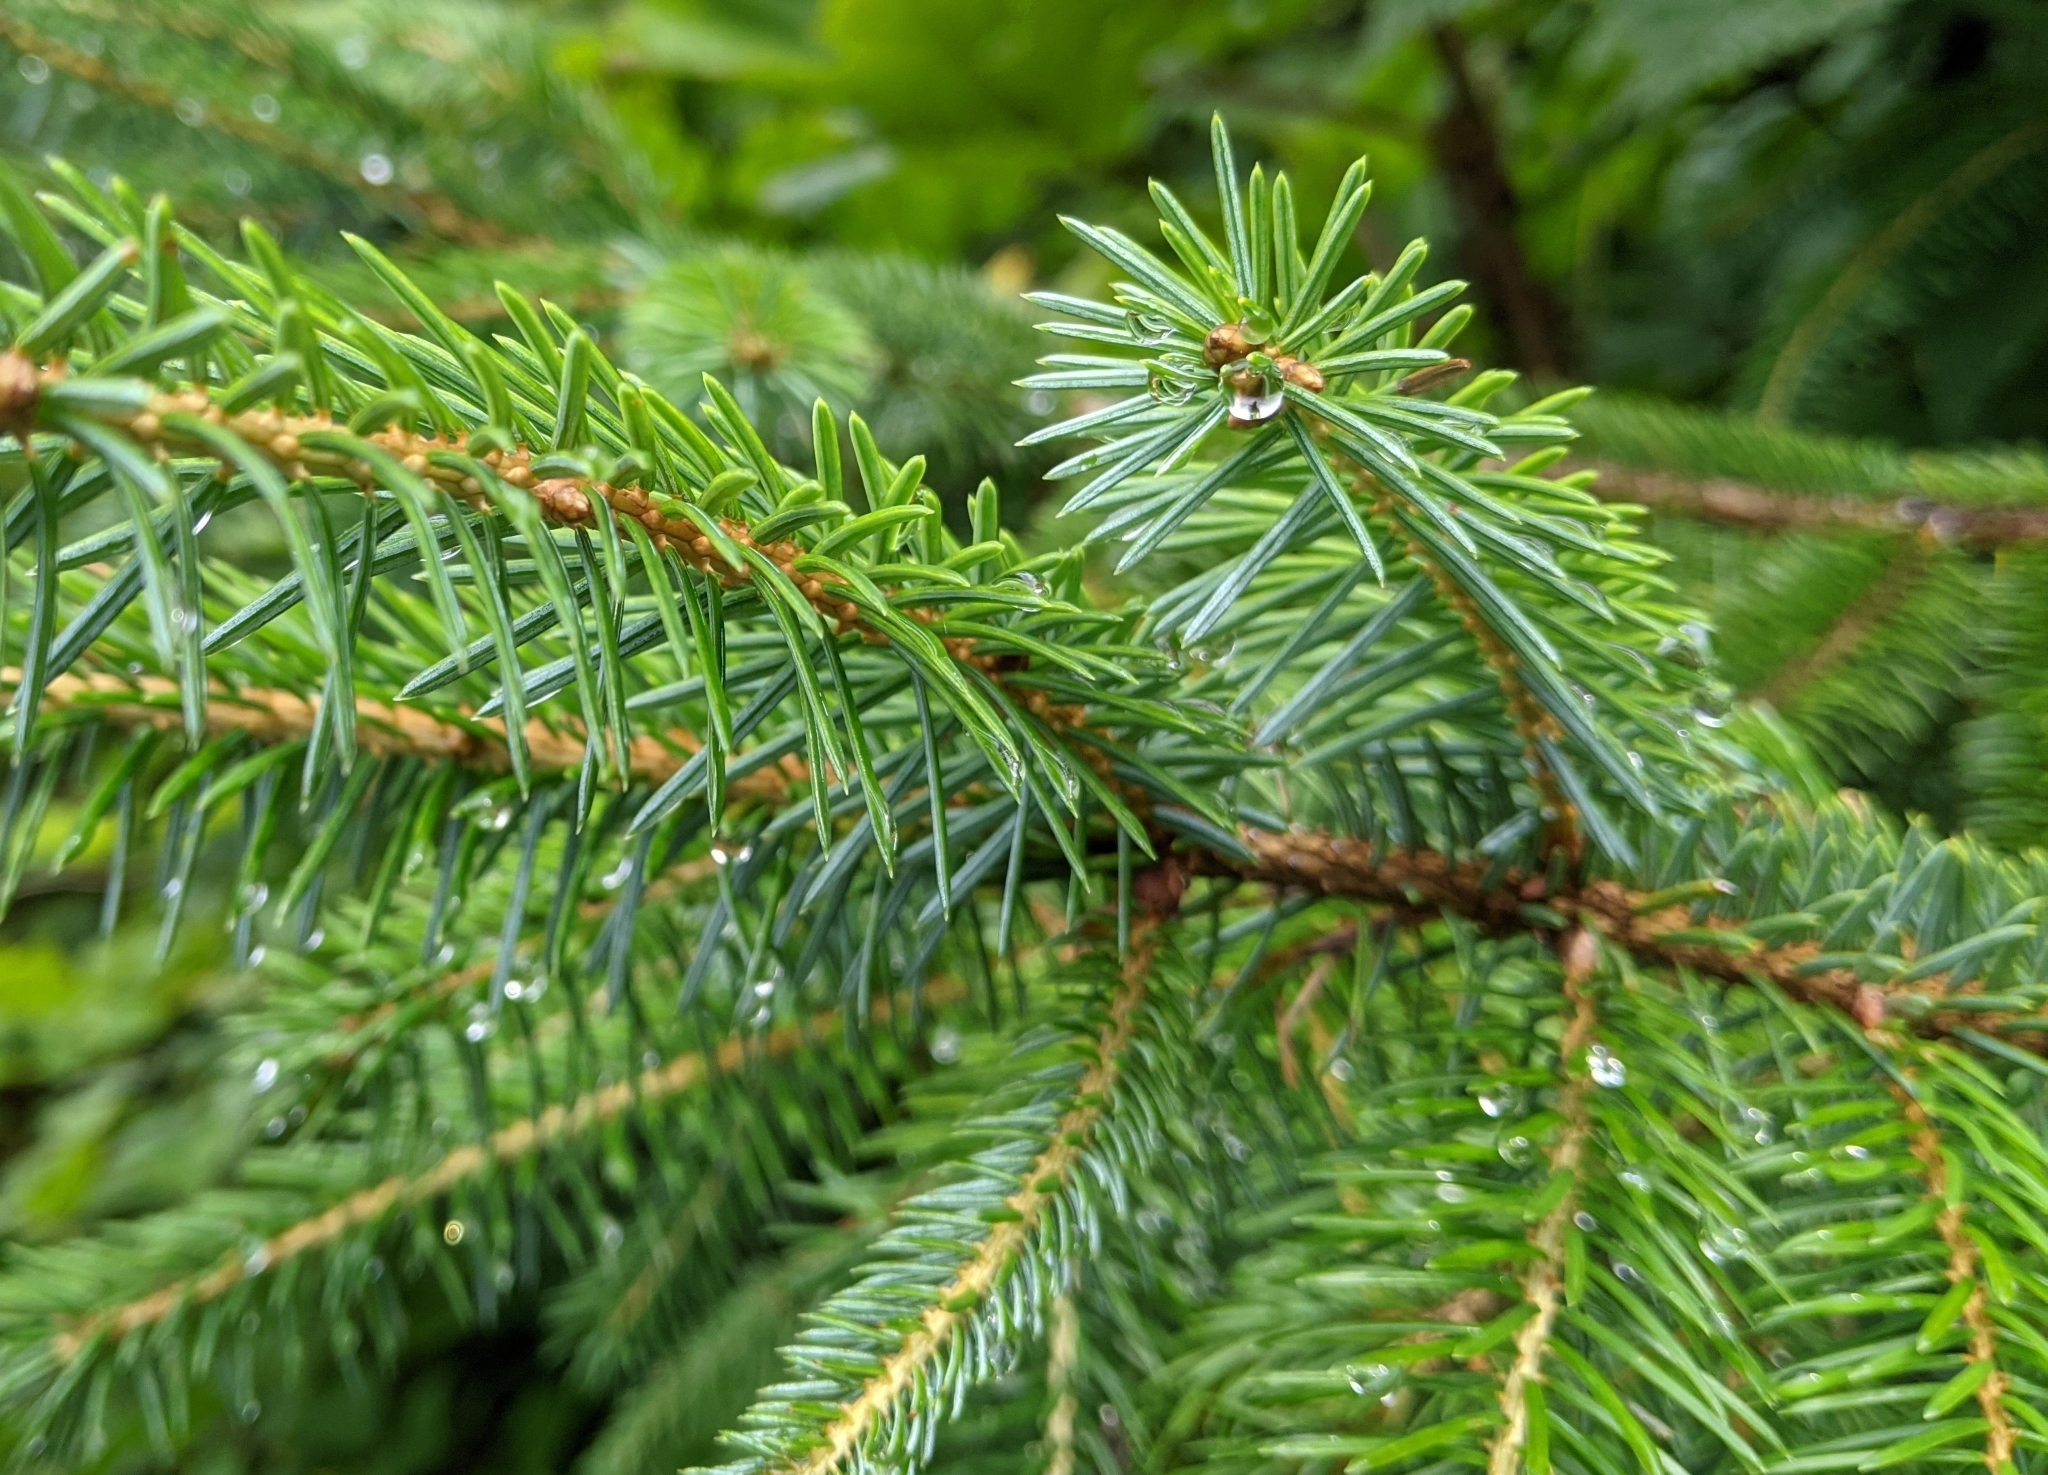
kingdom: Plantae
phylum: Tracheophyta
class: Pinopsida
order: Pinales
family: Pinaceae
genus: Picea
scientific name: Picea sitchensis
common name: Sitka spruce
